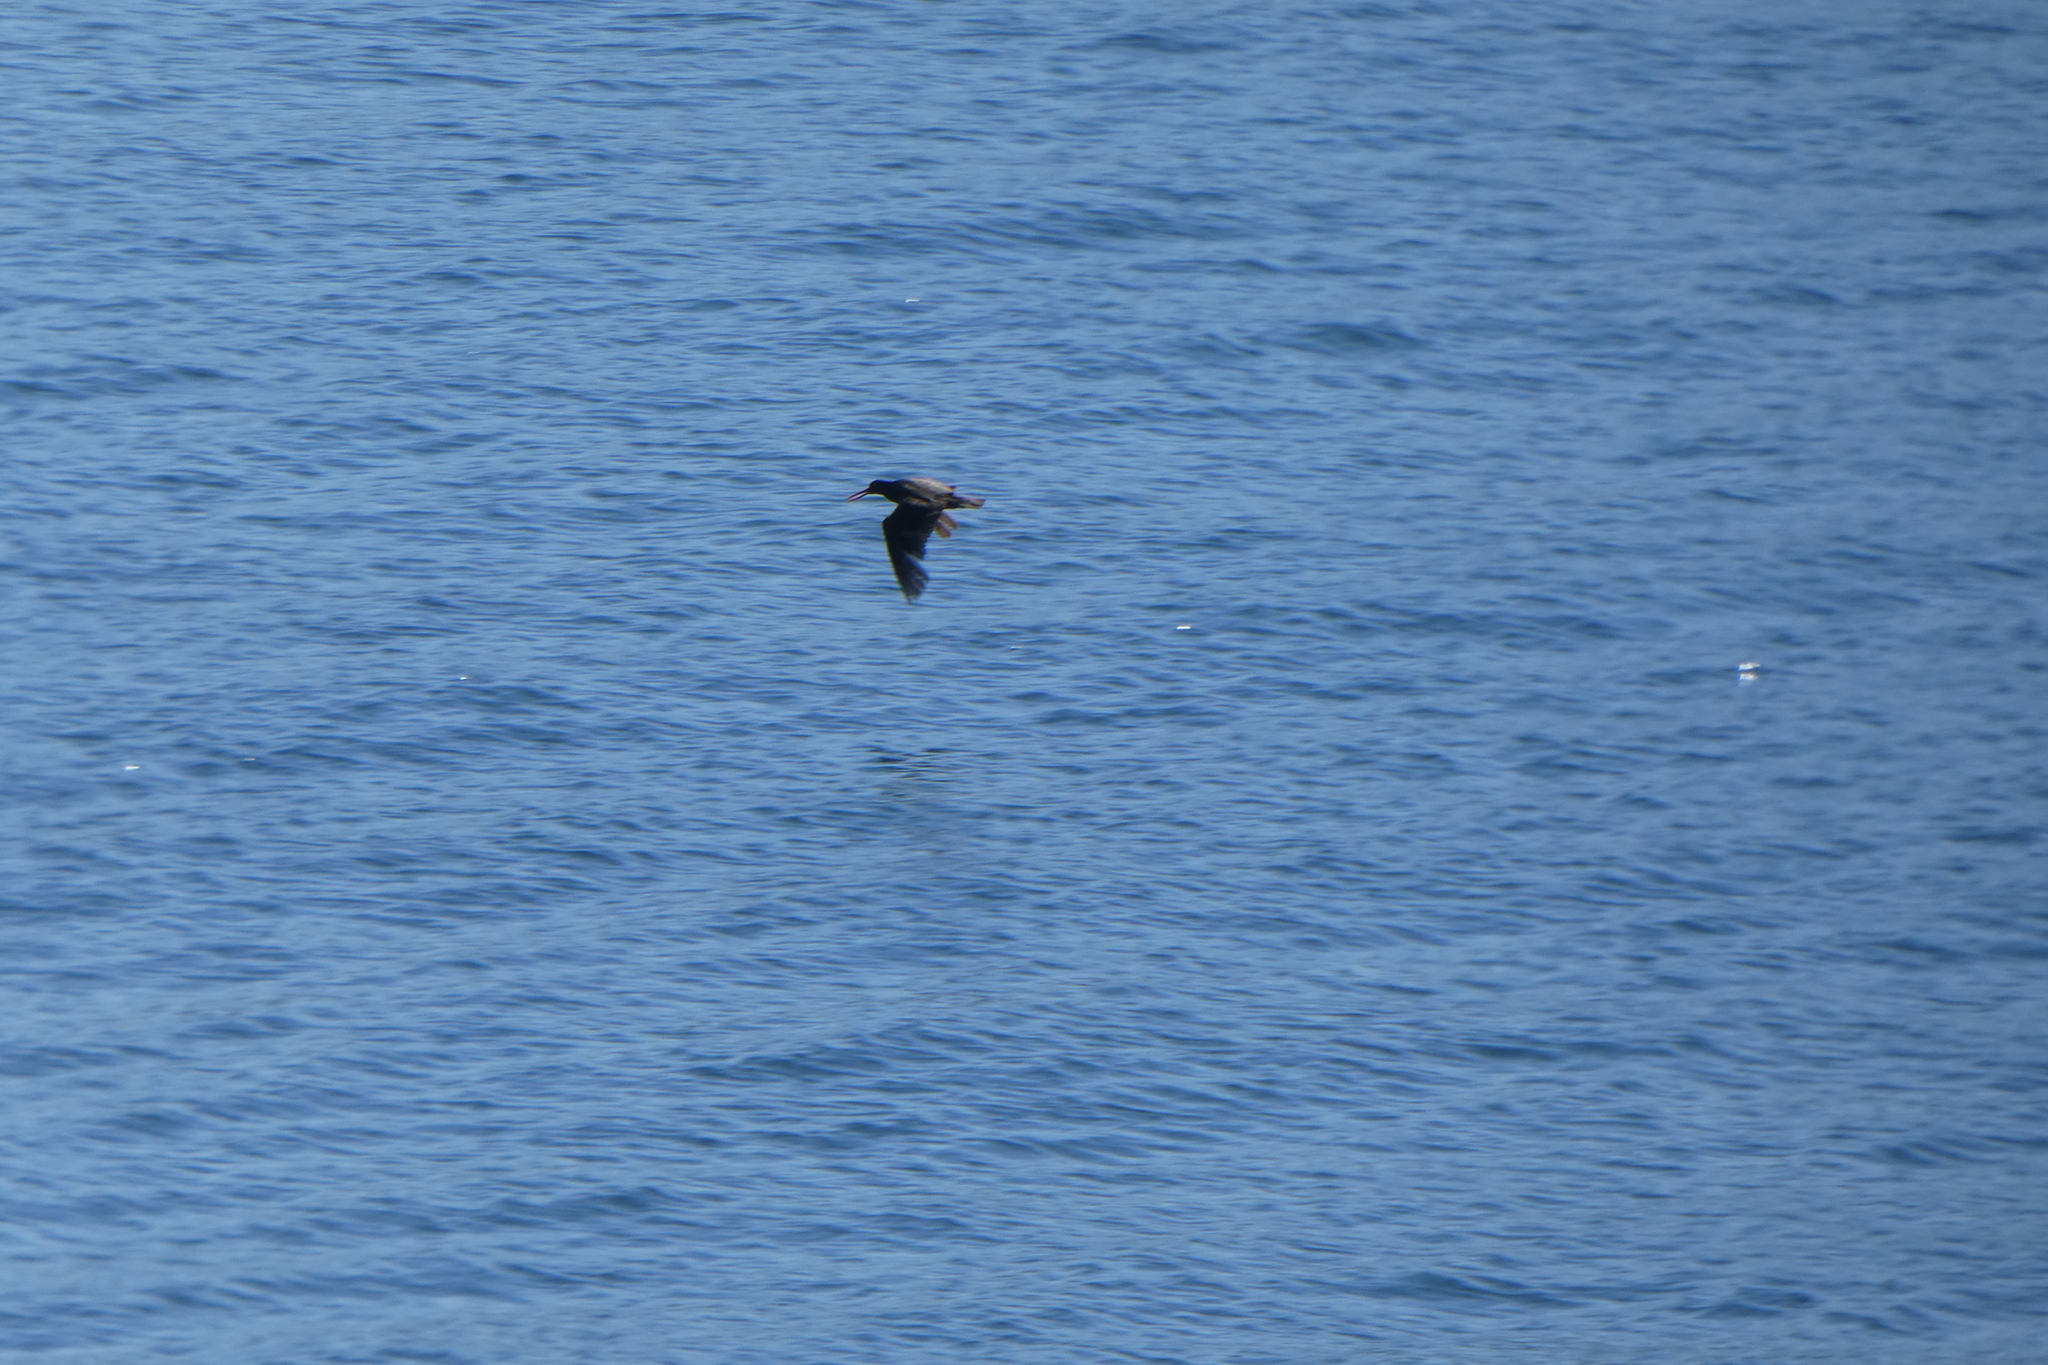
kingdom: Animalia
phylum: Chordata
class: Aves
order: Charadriiformes
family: Haematopodidae
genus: Haematopus
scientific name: Haematopus bachmani
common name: Black oystercatcher
